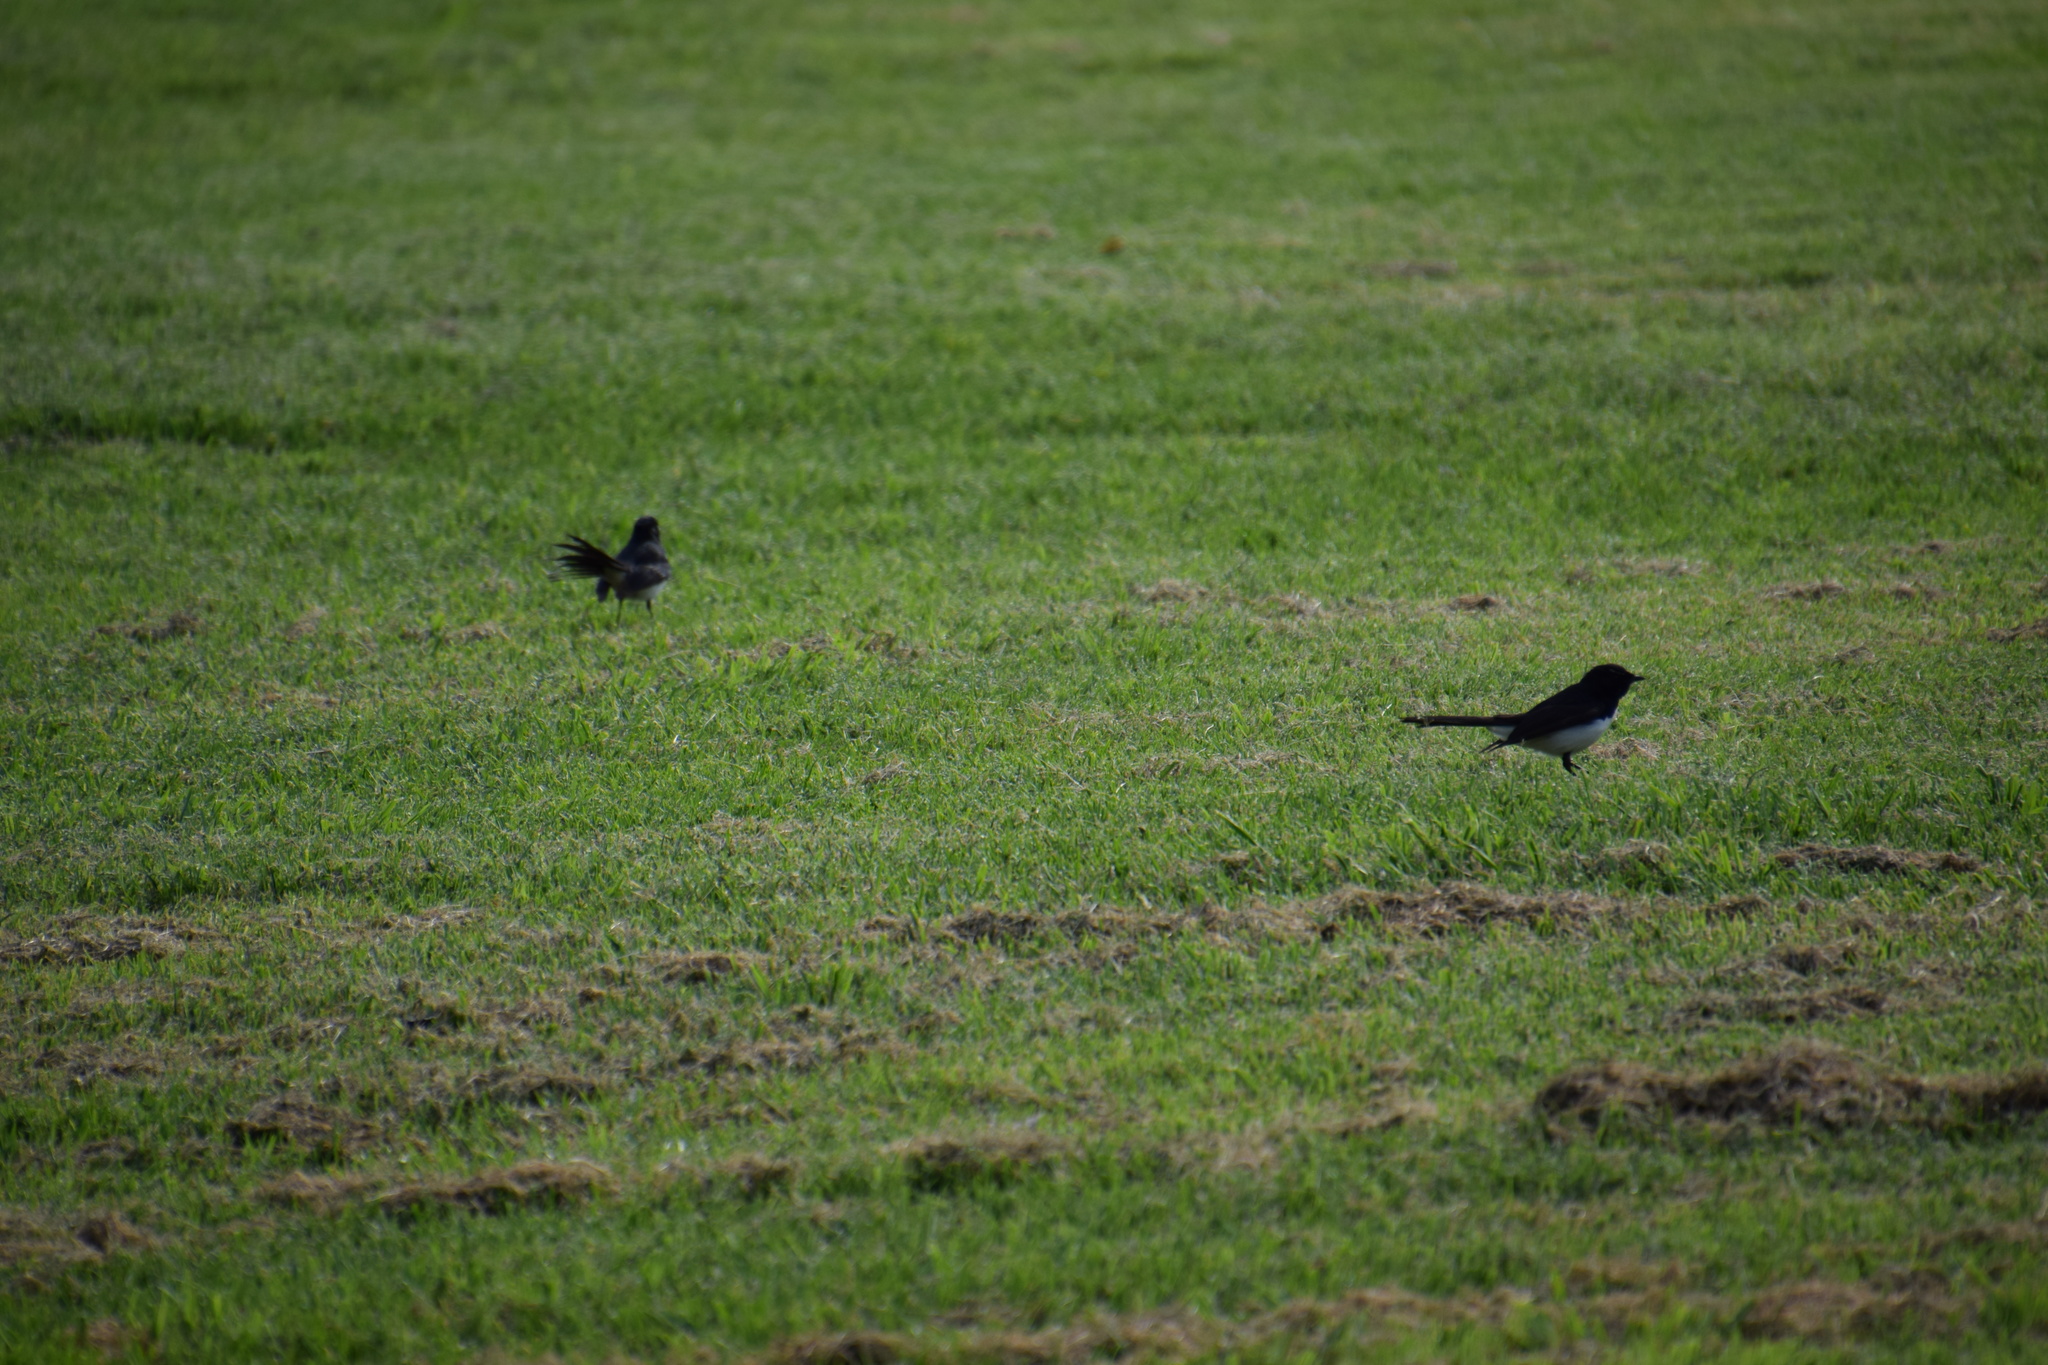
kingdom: Animalia
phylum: Chordata
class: Aves
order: Passeriformes
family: Rhipiduridae
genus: Rhipidura
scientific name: Rhipidura leucophrys
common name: Willie wagtail
